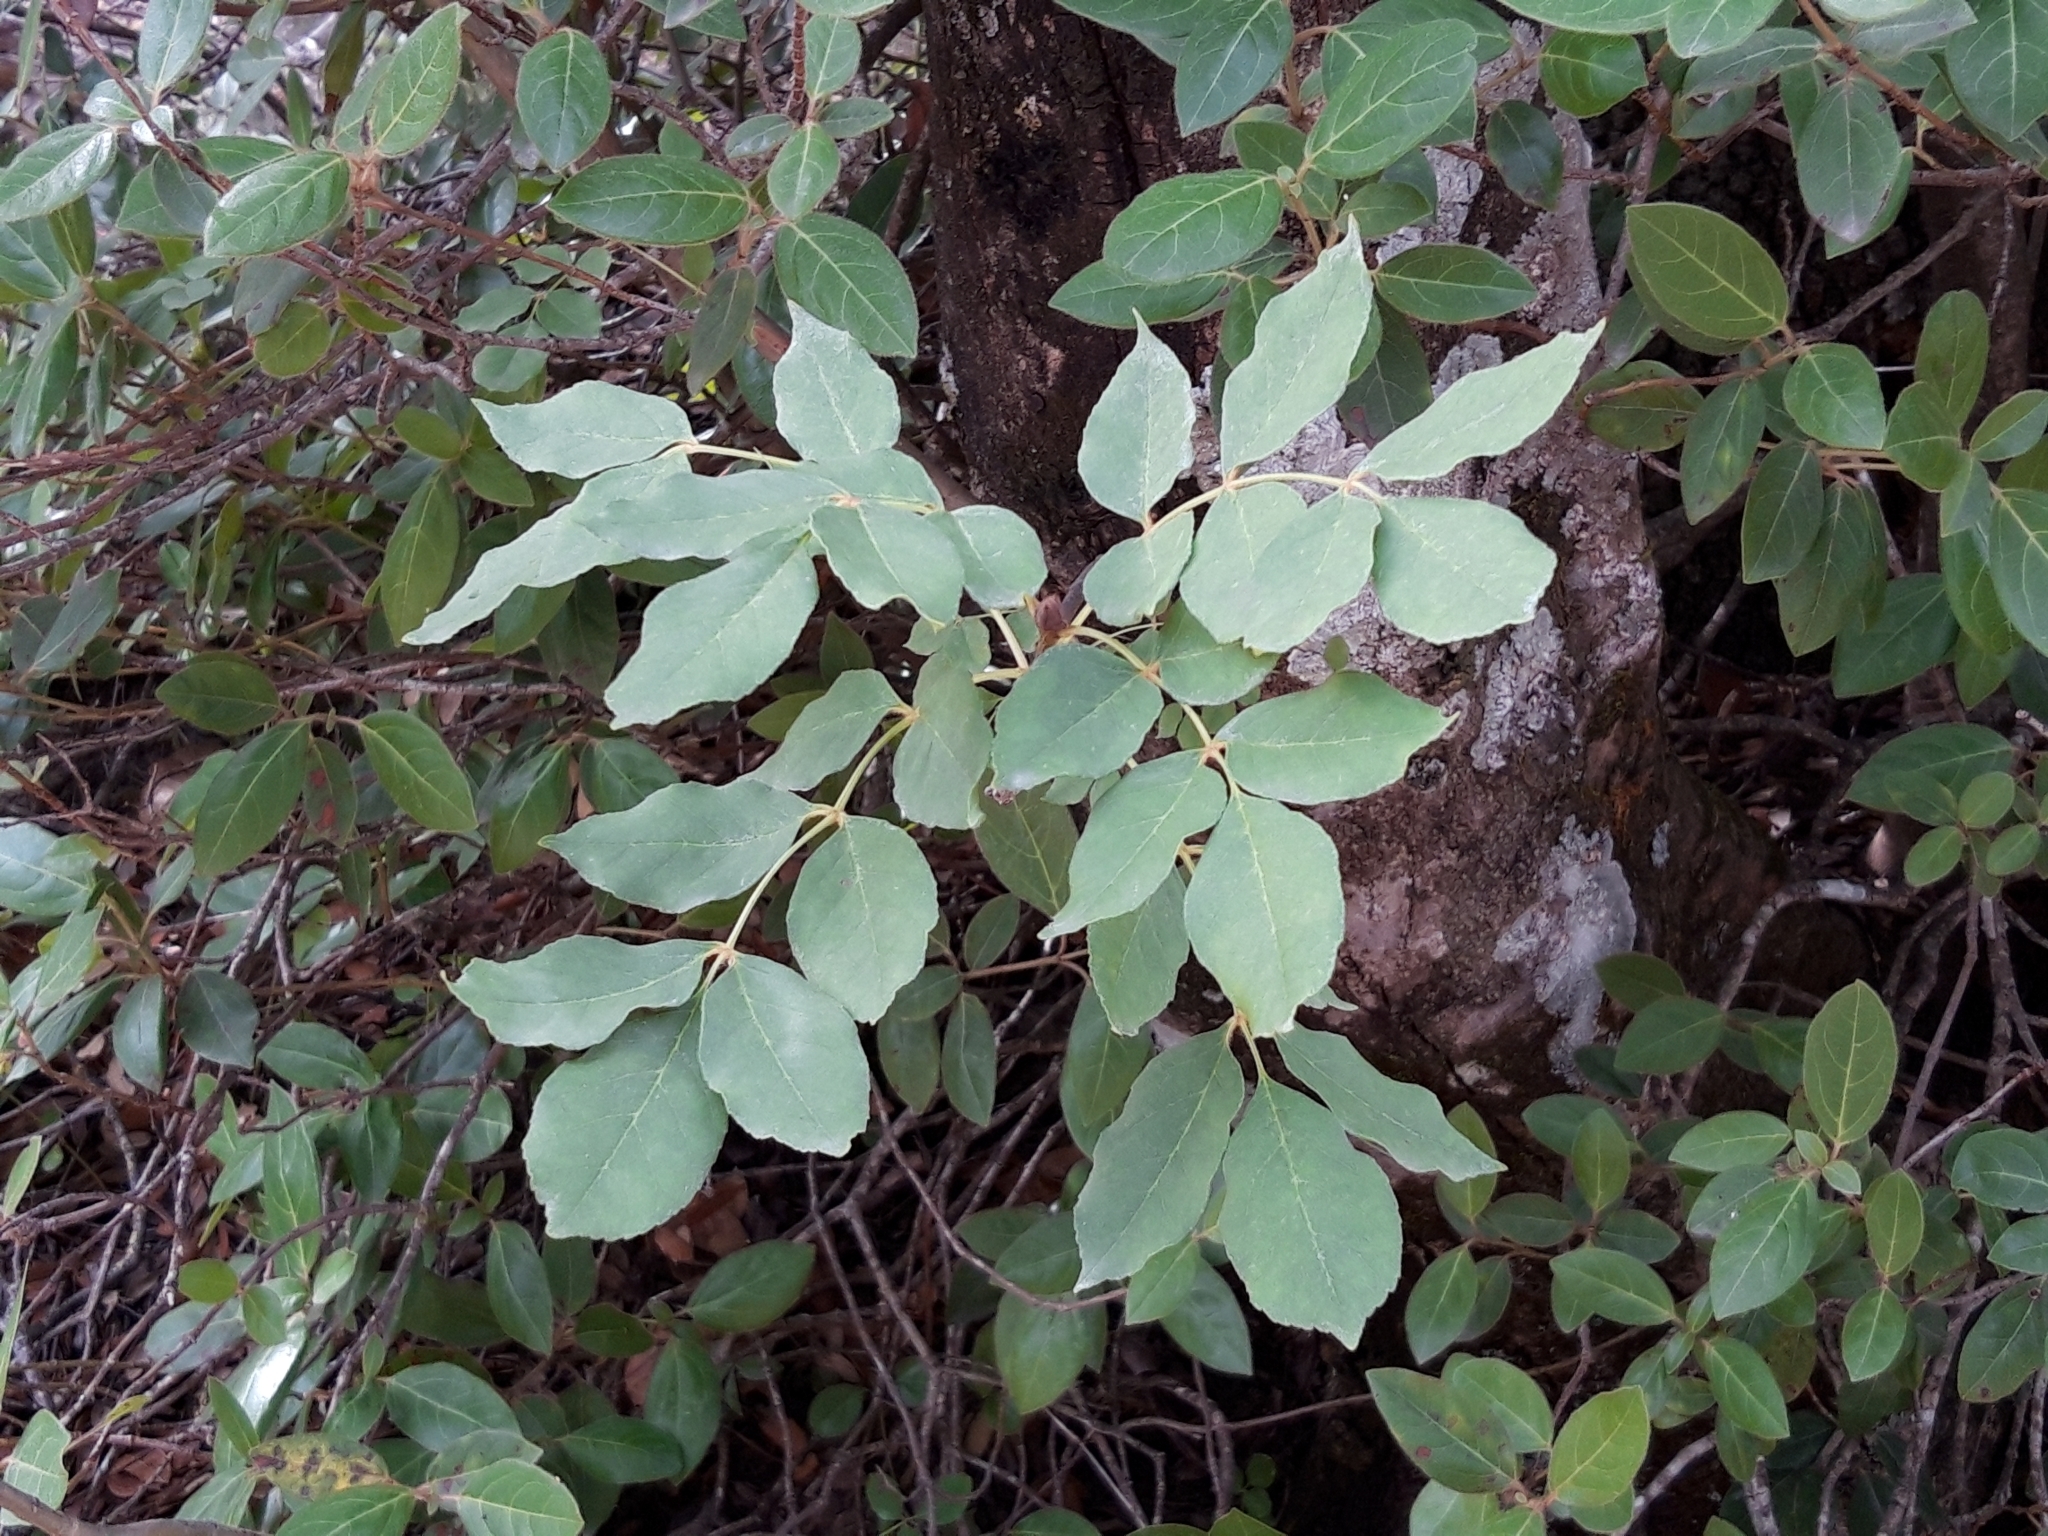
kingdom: Plantae
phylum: Tracheophyta
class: Magnoliopsida
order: Lamiales
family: Oleaceae
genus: Fraxinus
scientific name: Fraxinus ornus
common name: Manna ash
